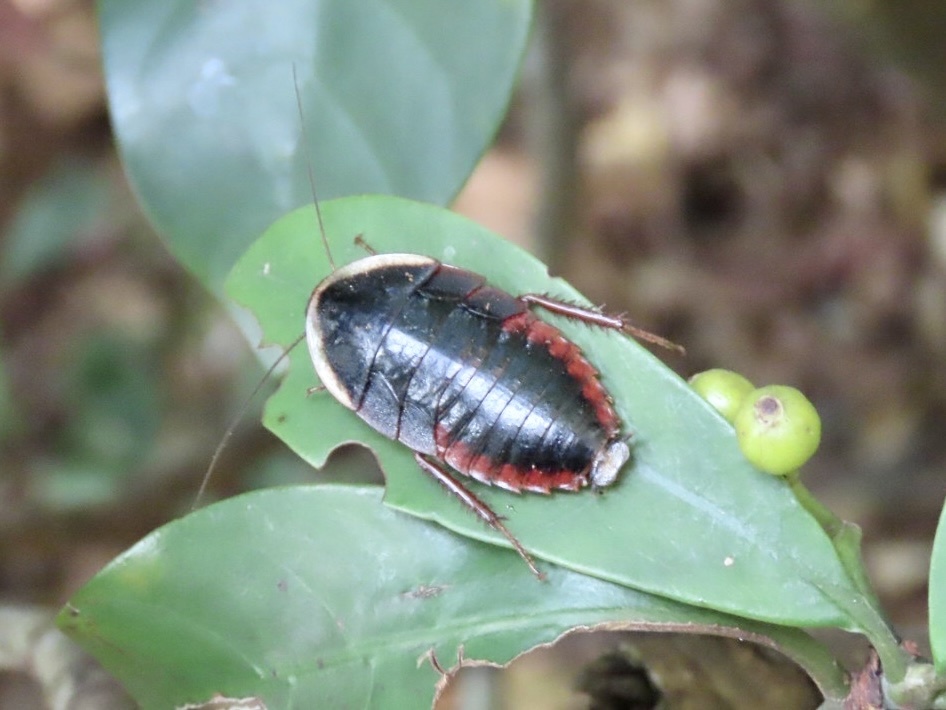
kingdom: Animalia
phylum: Arthropoda
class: Insecta
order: Blattodea
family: Blaberidae
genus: Opisthoplatia
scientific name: Opisthoplatia orientalis
